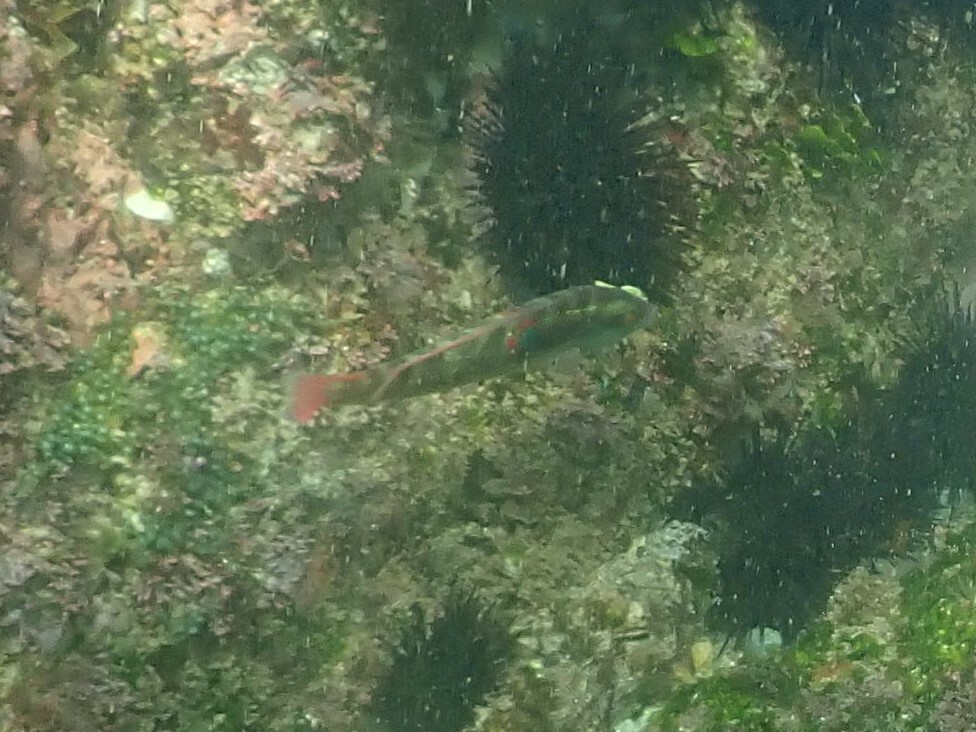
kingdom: Animalia
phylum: Chordata
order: Perciformes
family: Labridae
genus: Halichoeres
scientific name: Halichoeres chierchiae
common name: Wounded wrasse
